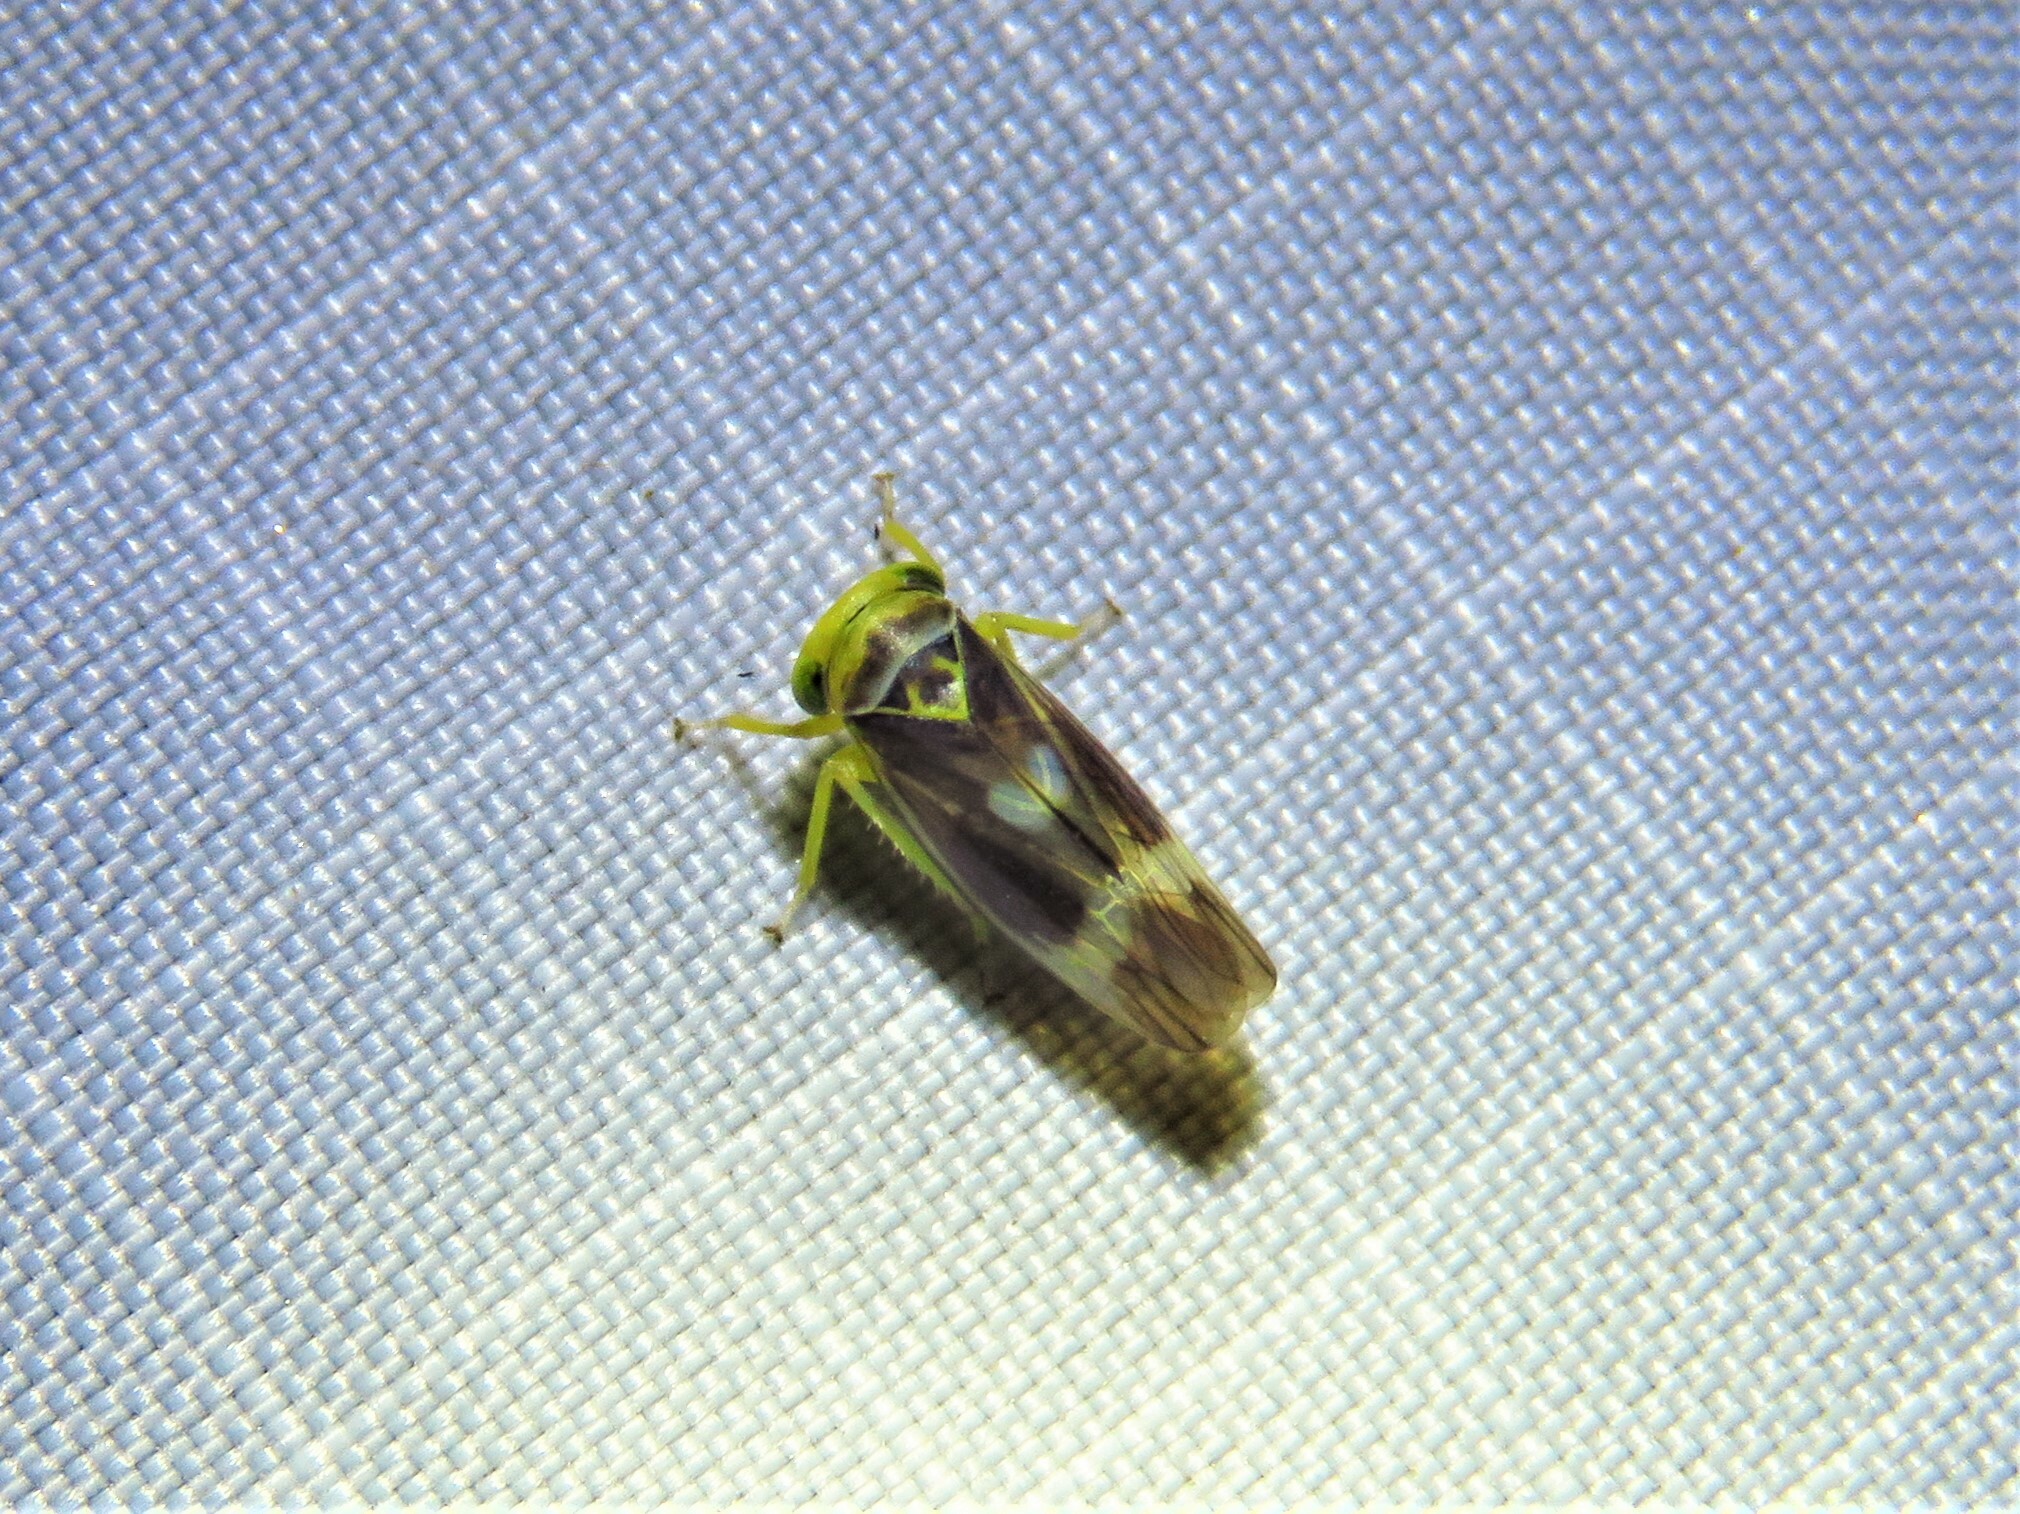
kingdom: Animalia
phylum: Arthropoda
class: Insecta
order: Hemiptera
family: Cicadellidae
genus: Populicerus
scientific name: Populicerus laminatus
